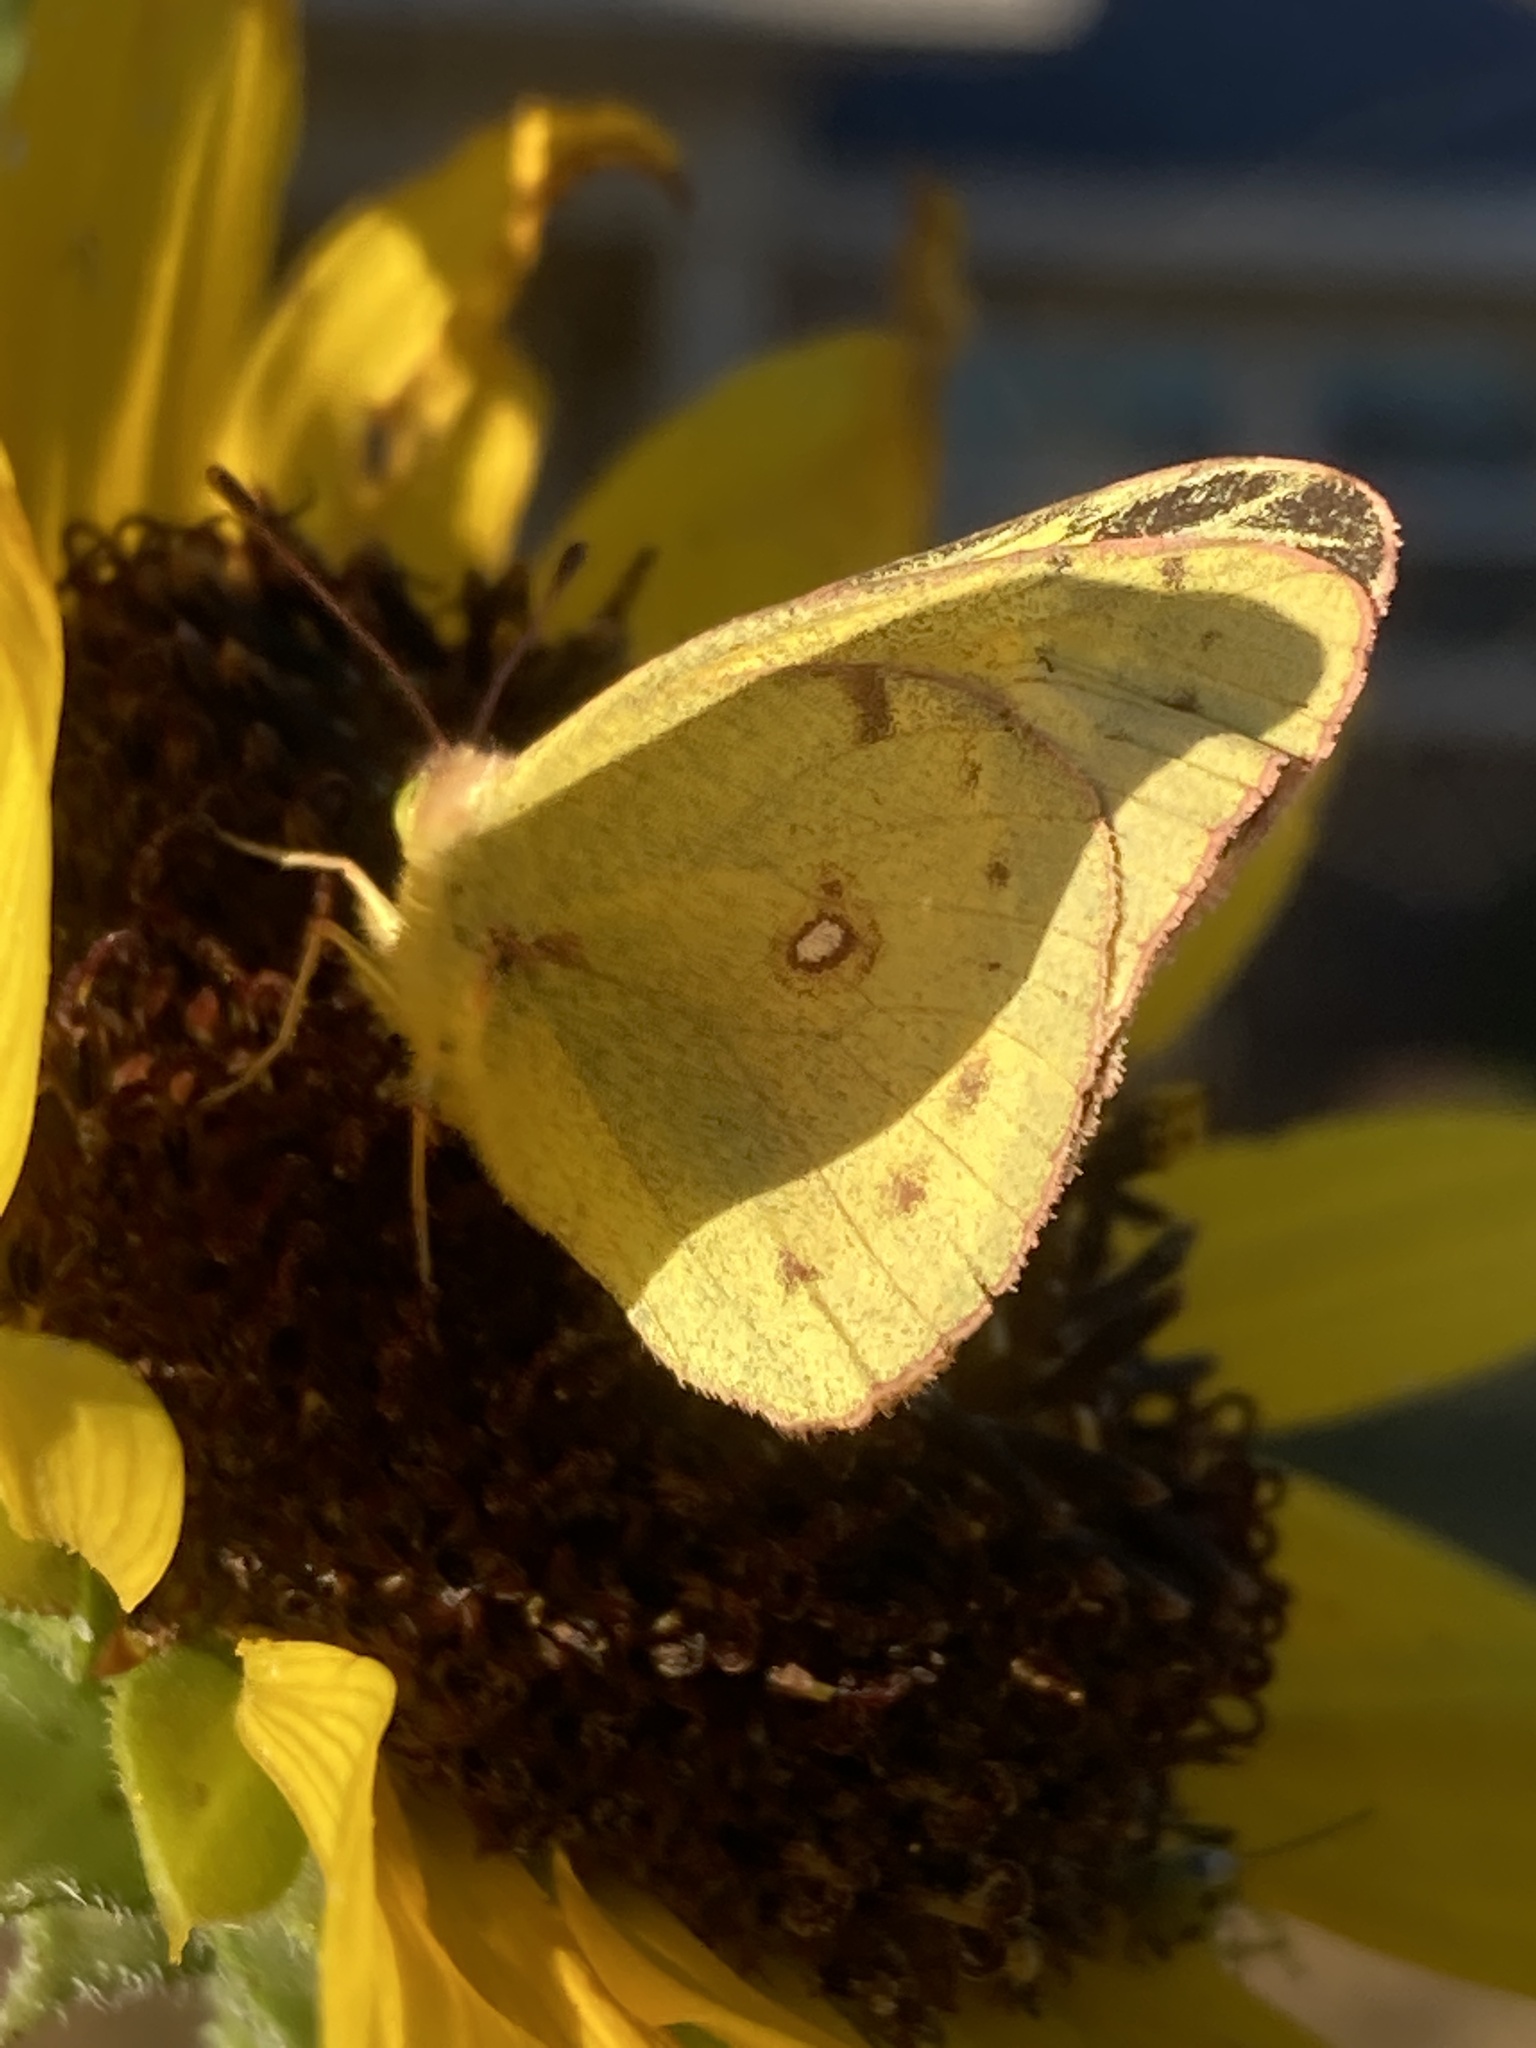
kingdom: Animalia
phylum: Arthropoda
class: Insecta
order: Lepidoptera
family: Pieridae
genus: Colias
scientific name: Colias philodice
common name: Clouded sulphur
